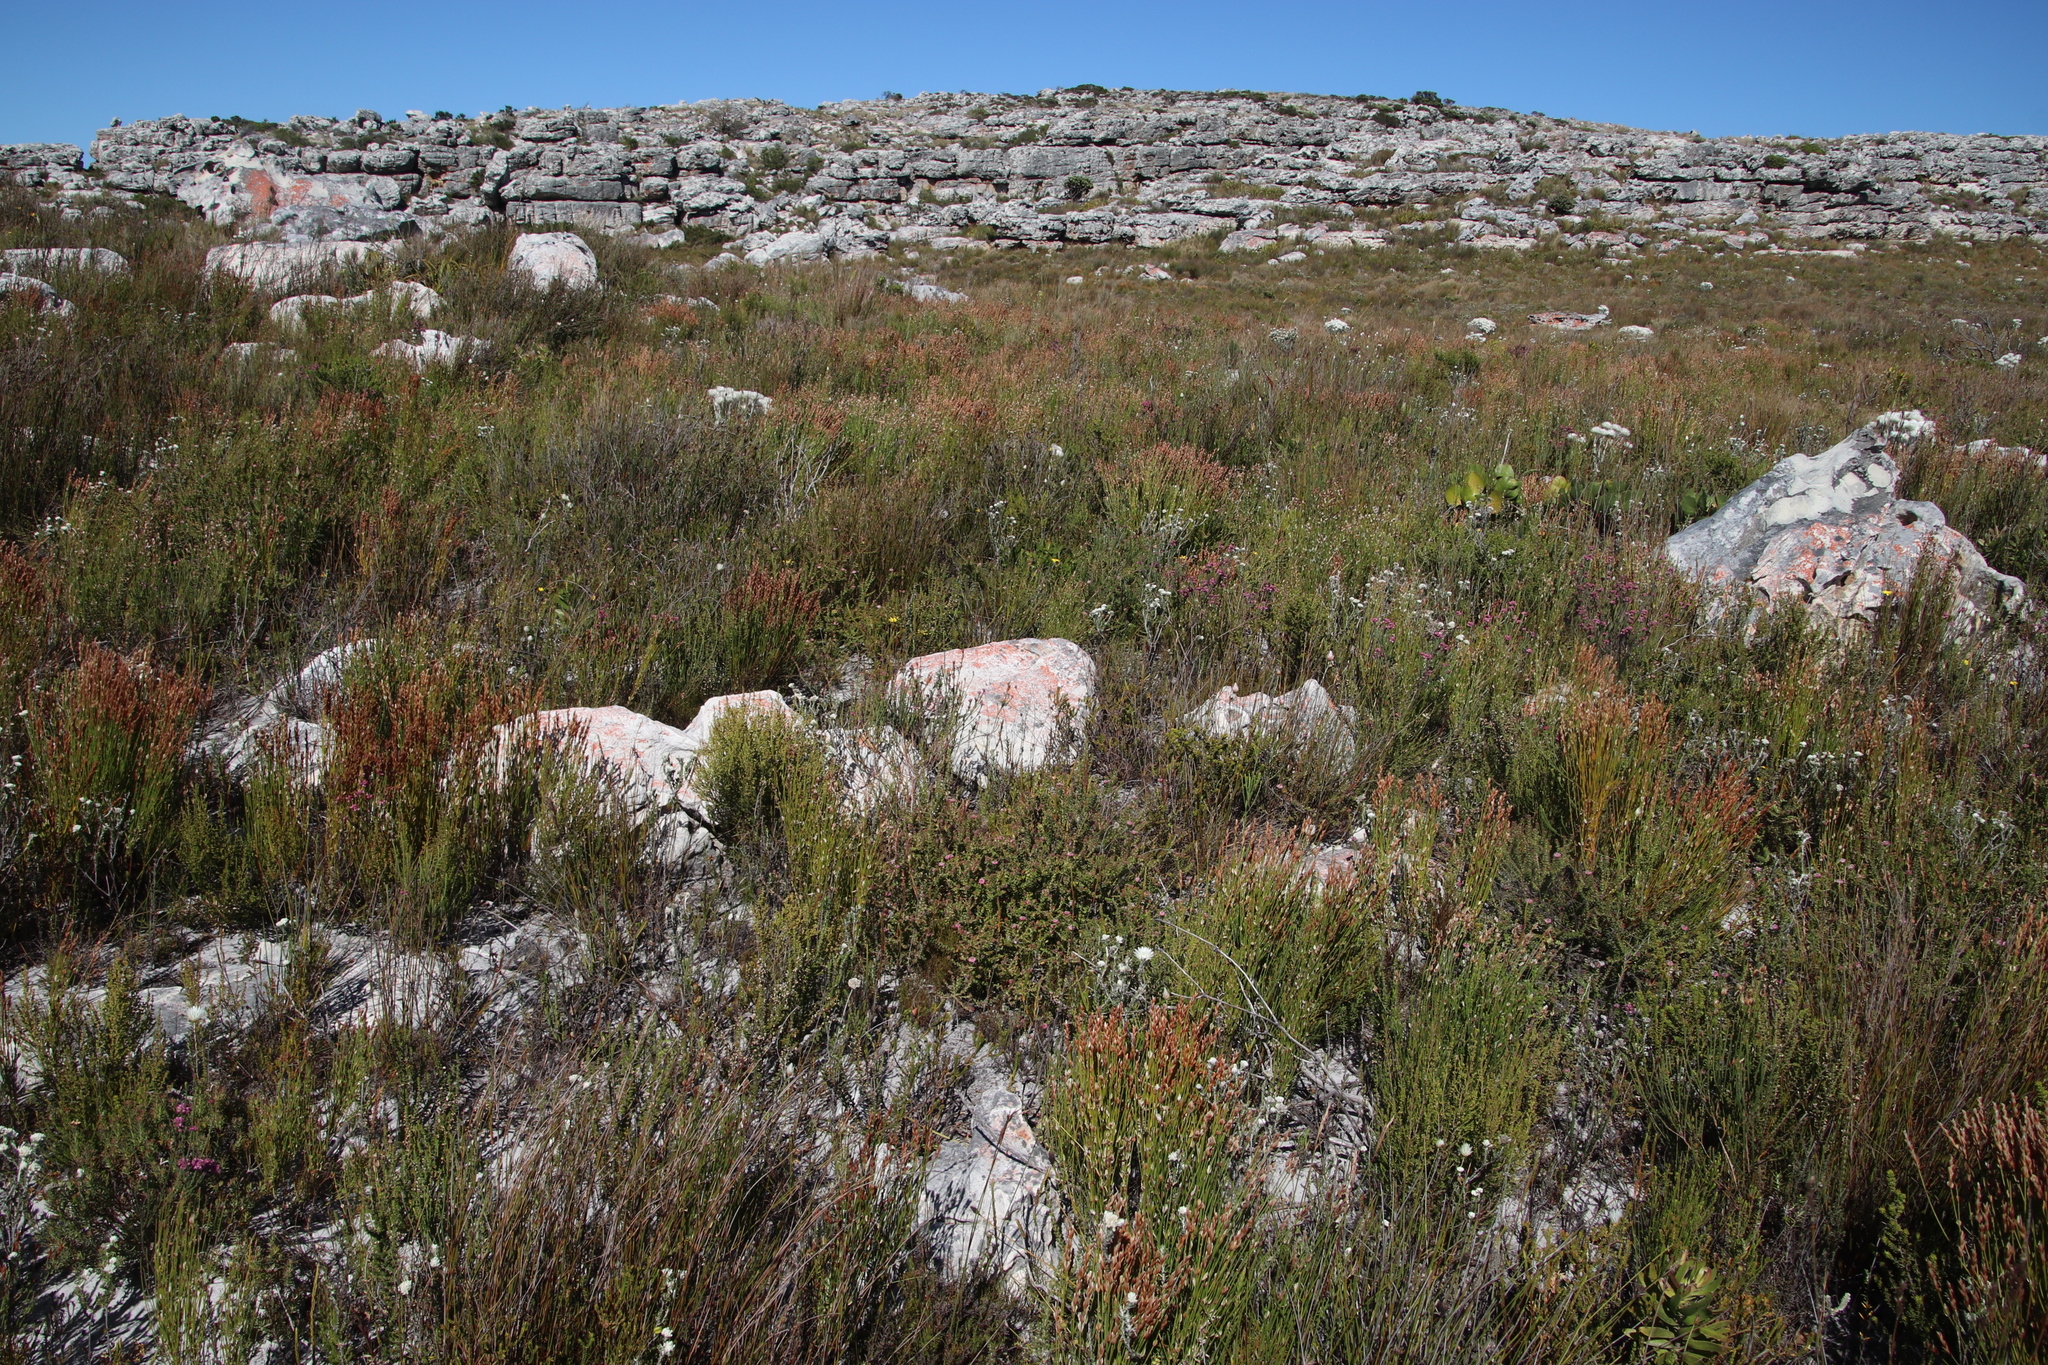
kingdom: Plantae
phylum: Tracheophyta
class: Magnoliopsida
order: Proteales
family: Proteaceae
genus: Diastella
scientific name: Diastella divaricata
